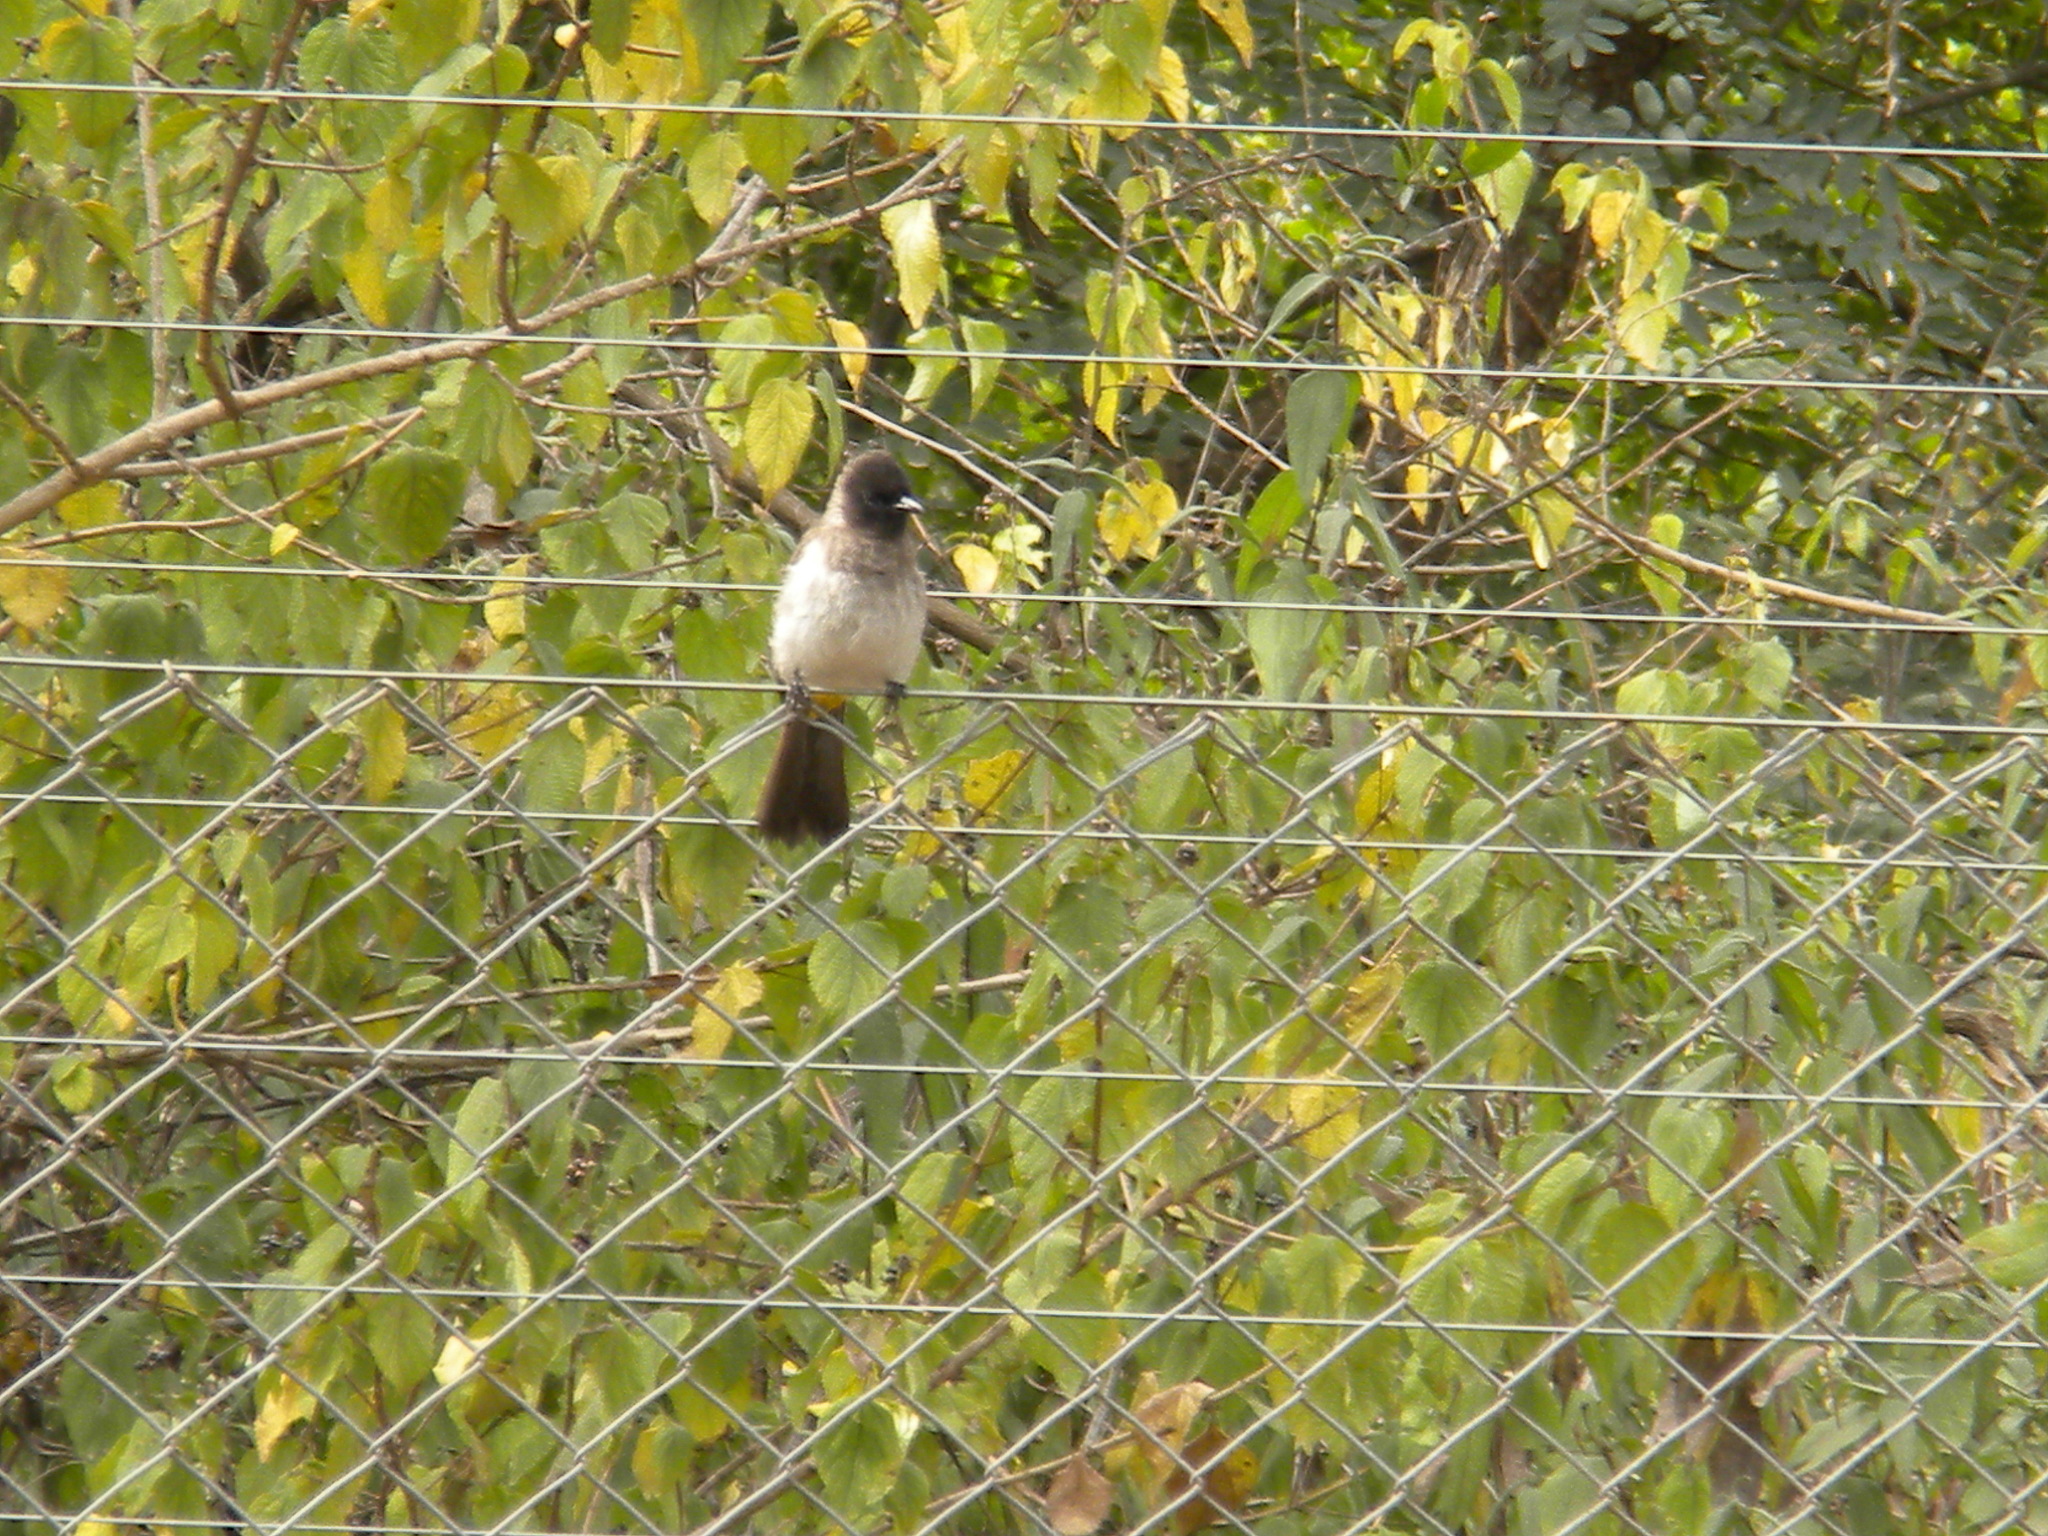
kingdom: Animalia
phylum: Chordata
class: Aves
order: Passeriformes
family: Pycnonotidae
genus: Pycnonotus
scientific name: Pycnonotus barbatus
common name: Common bulbul
